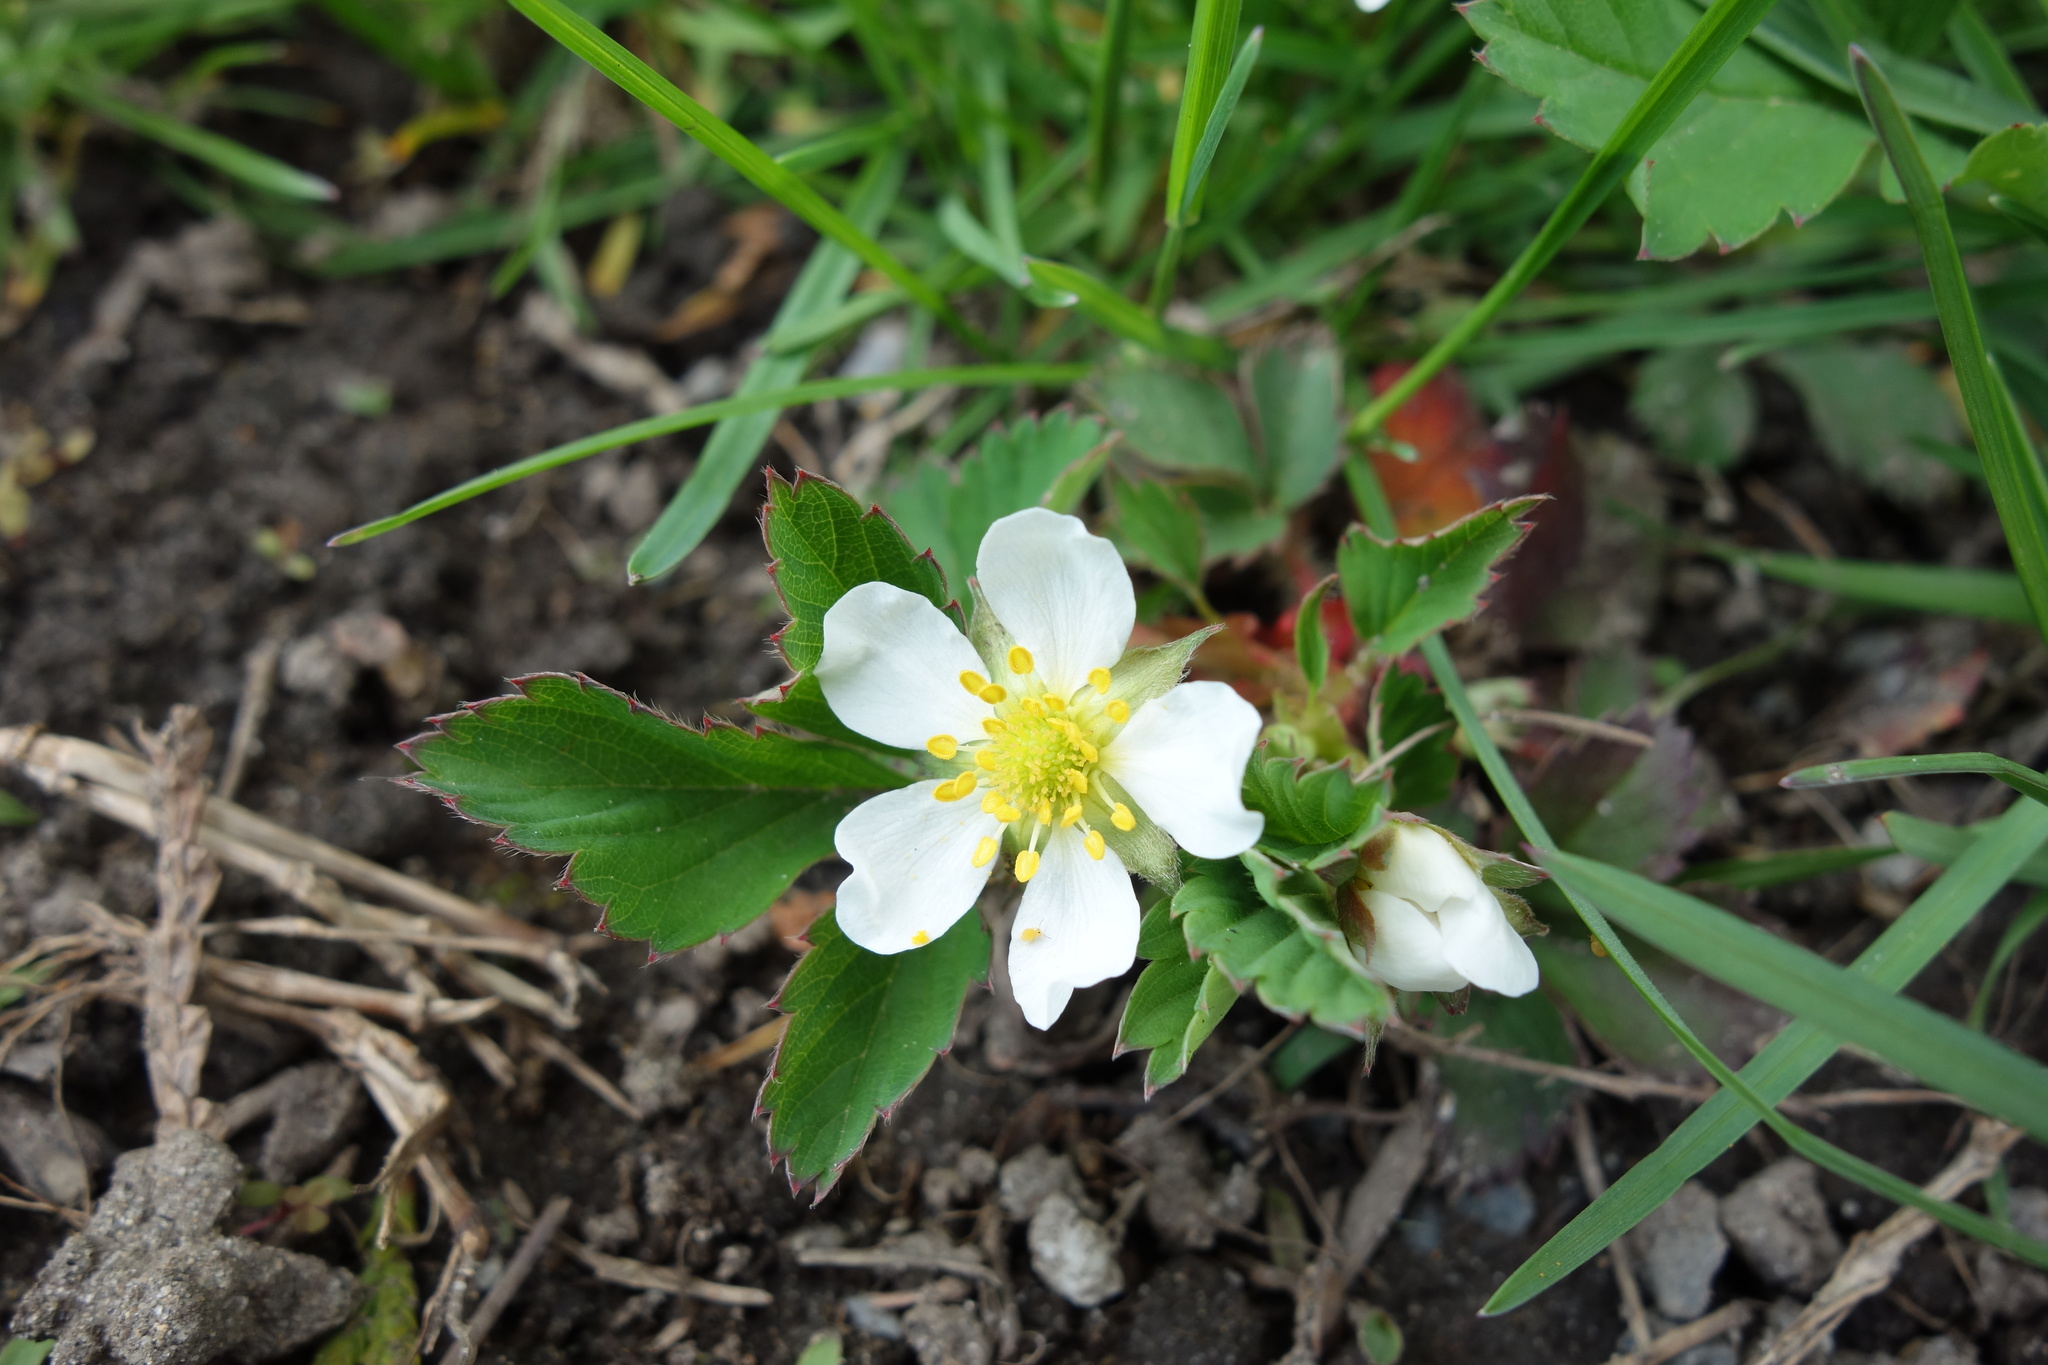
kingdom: Plantae
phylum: Tracheophyta
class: Magnoliopsida
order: Rosales
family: Rosaceae
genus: Fragaria
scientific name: Fragaria virginiana
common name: Thickleaved wild strawberry
